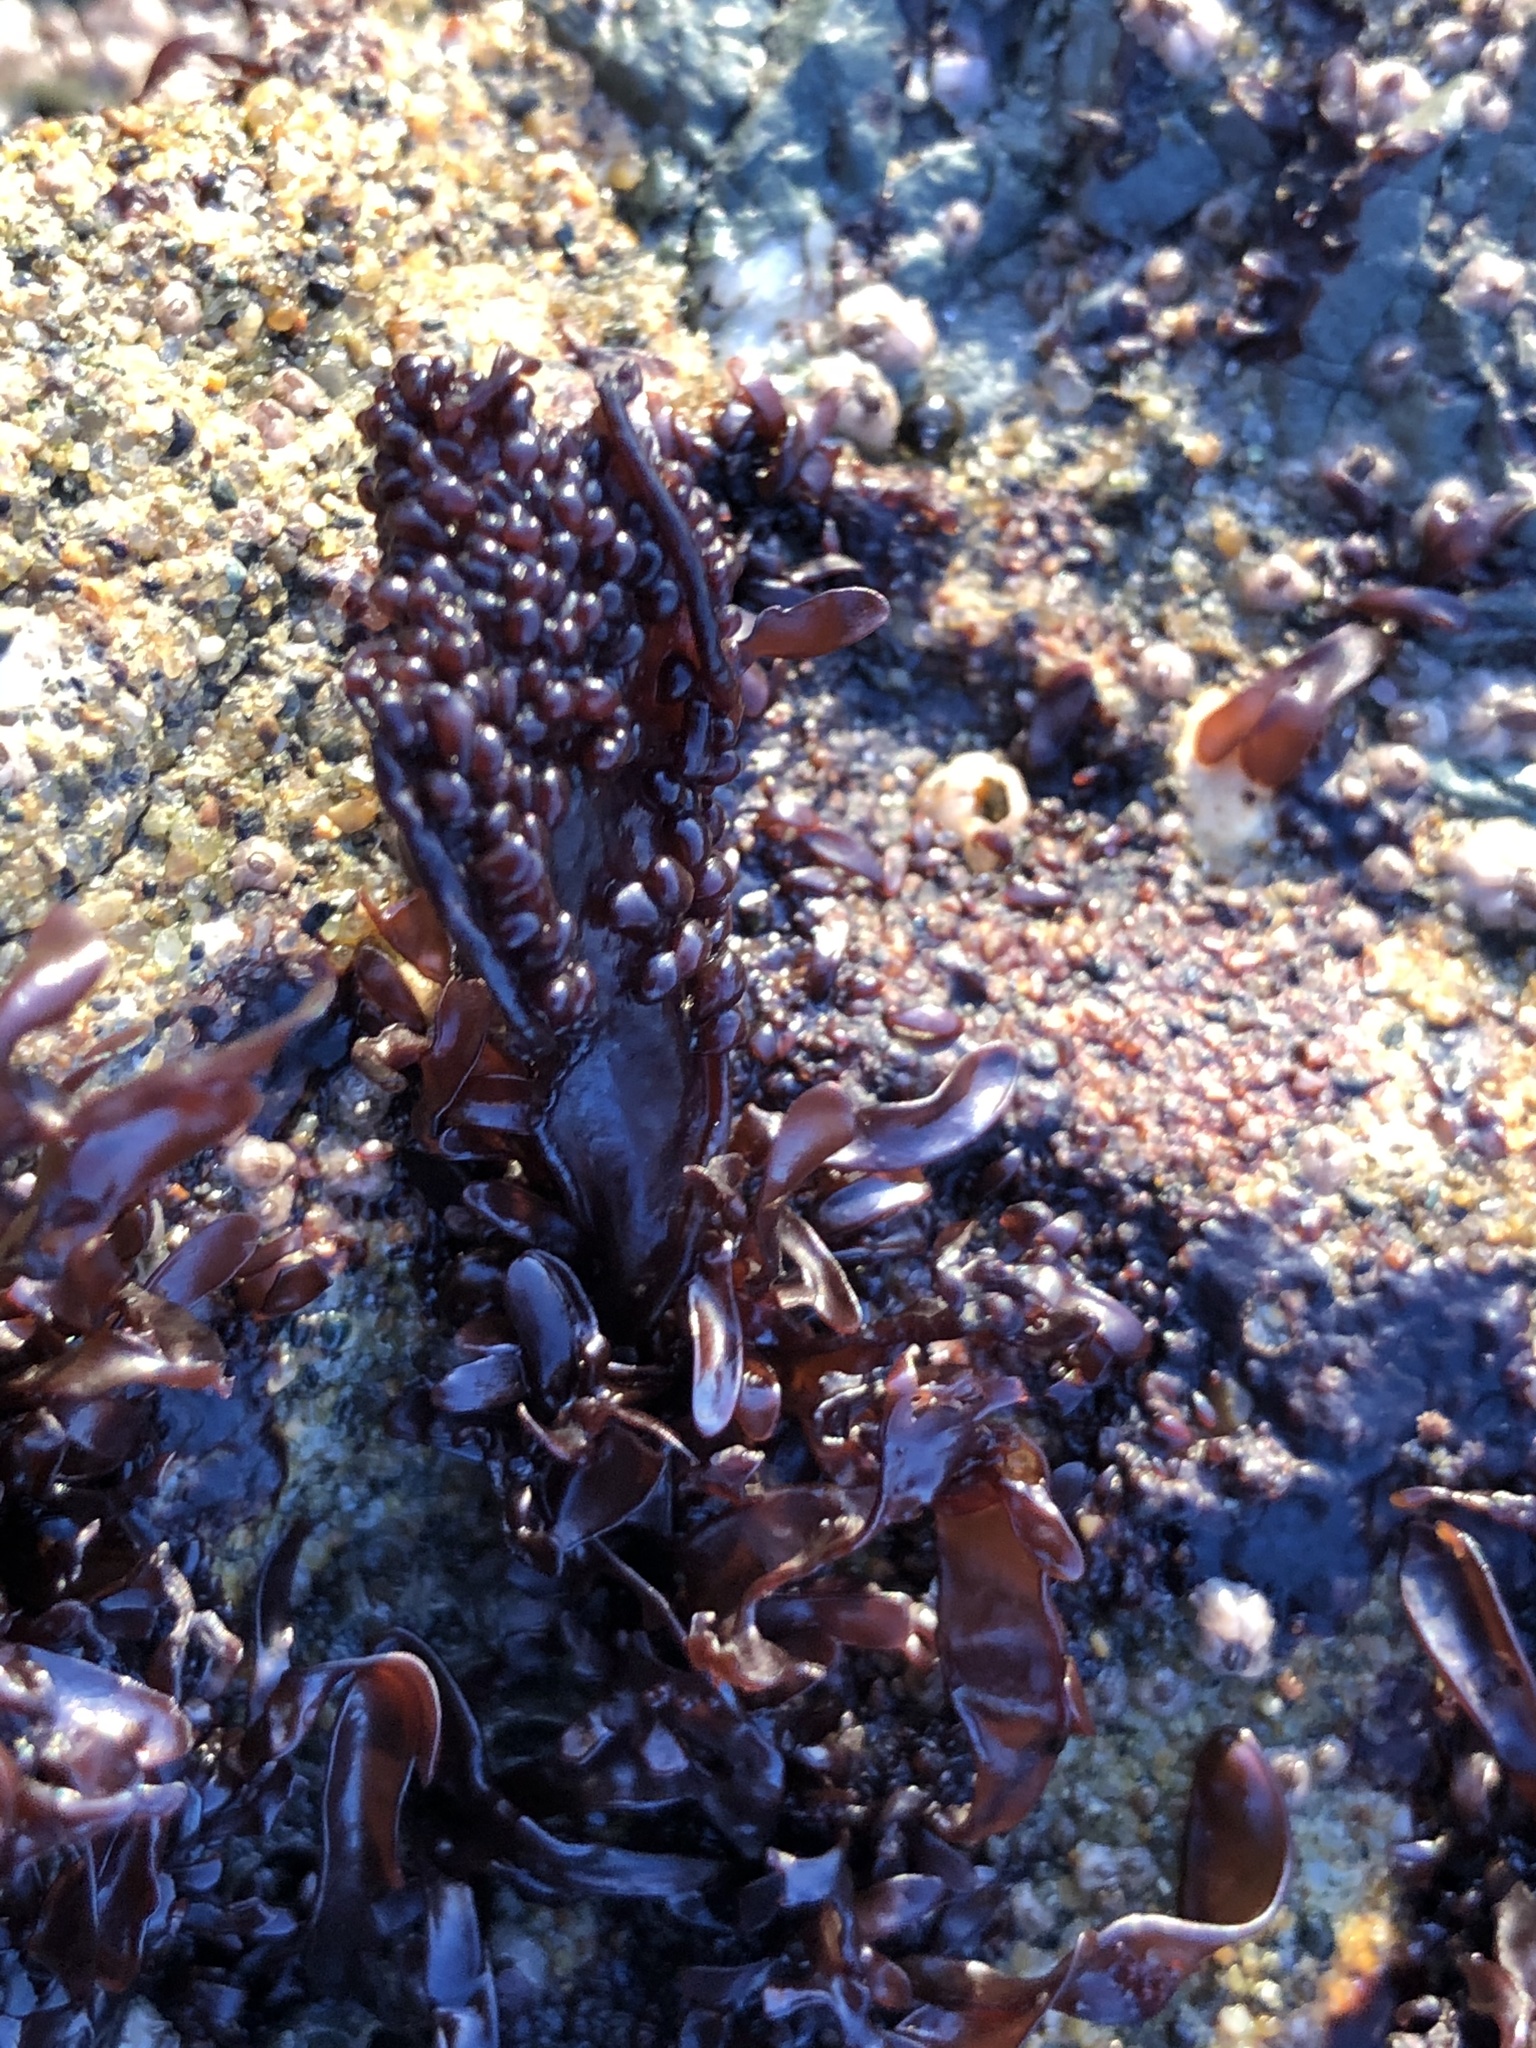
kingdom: Plantae
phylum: Rhodophyta
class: Florideophyceae
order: Gigartinales
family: Phyllophoraceae
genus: Mastocarpus
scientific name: Mastocarpus papillatus
